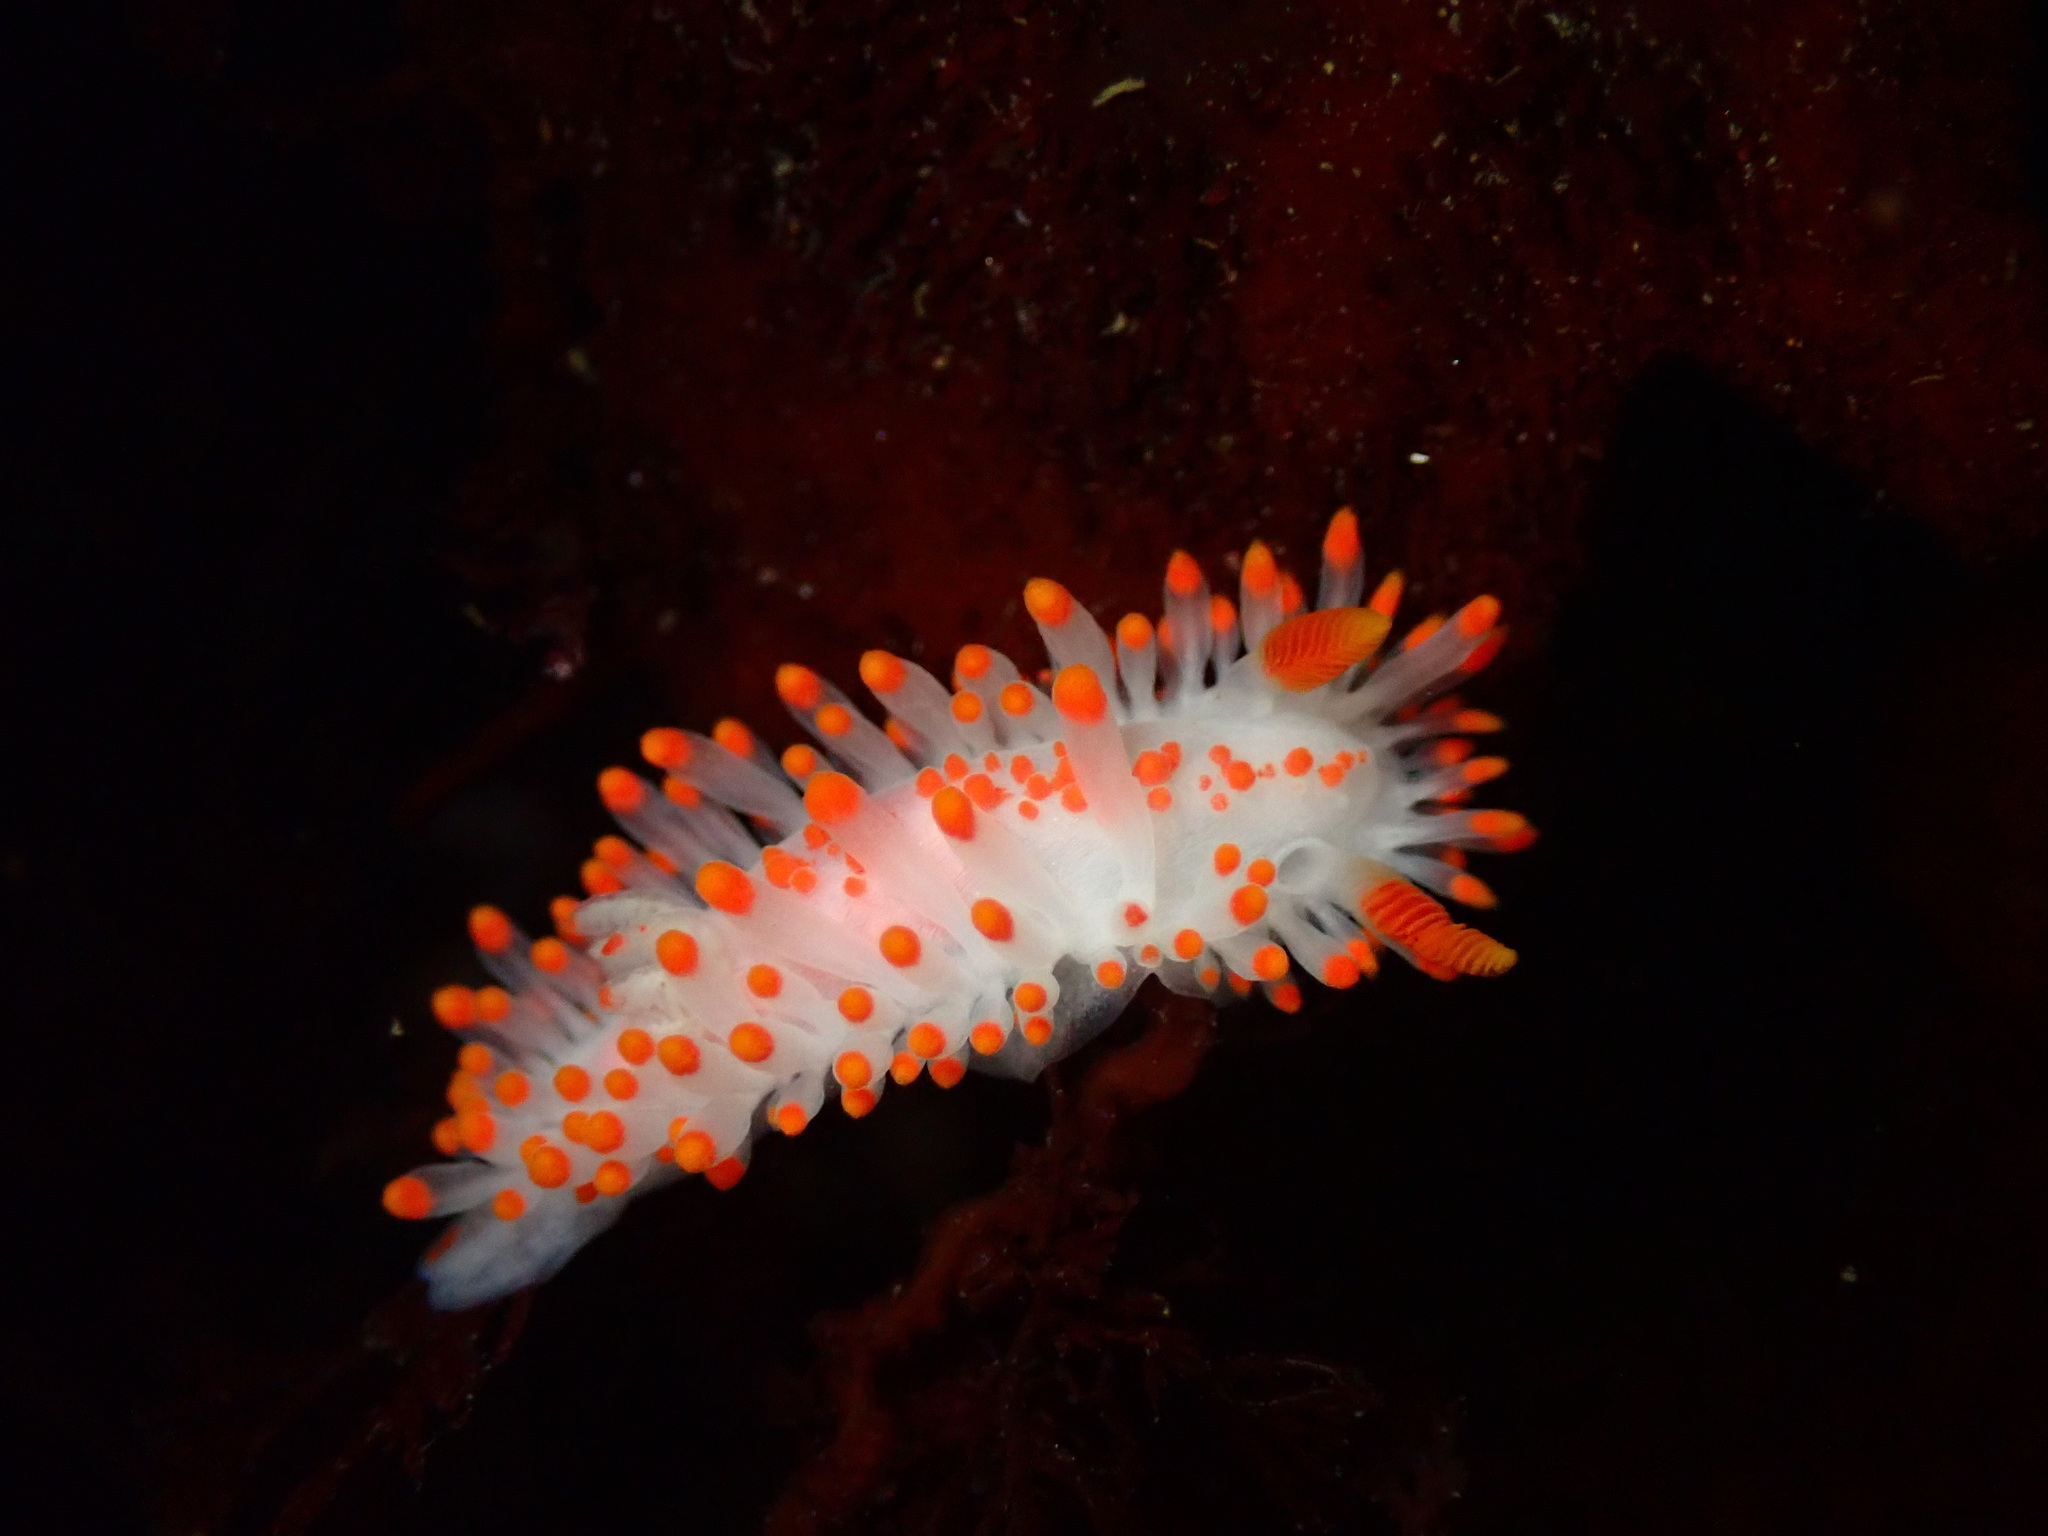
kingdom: Animalia
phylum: Mollusca
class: Gastropoda
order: Nudibranchia
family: Polyceridae
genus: Limacia
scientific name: Limacia mcdonaldi
